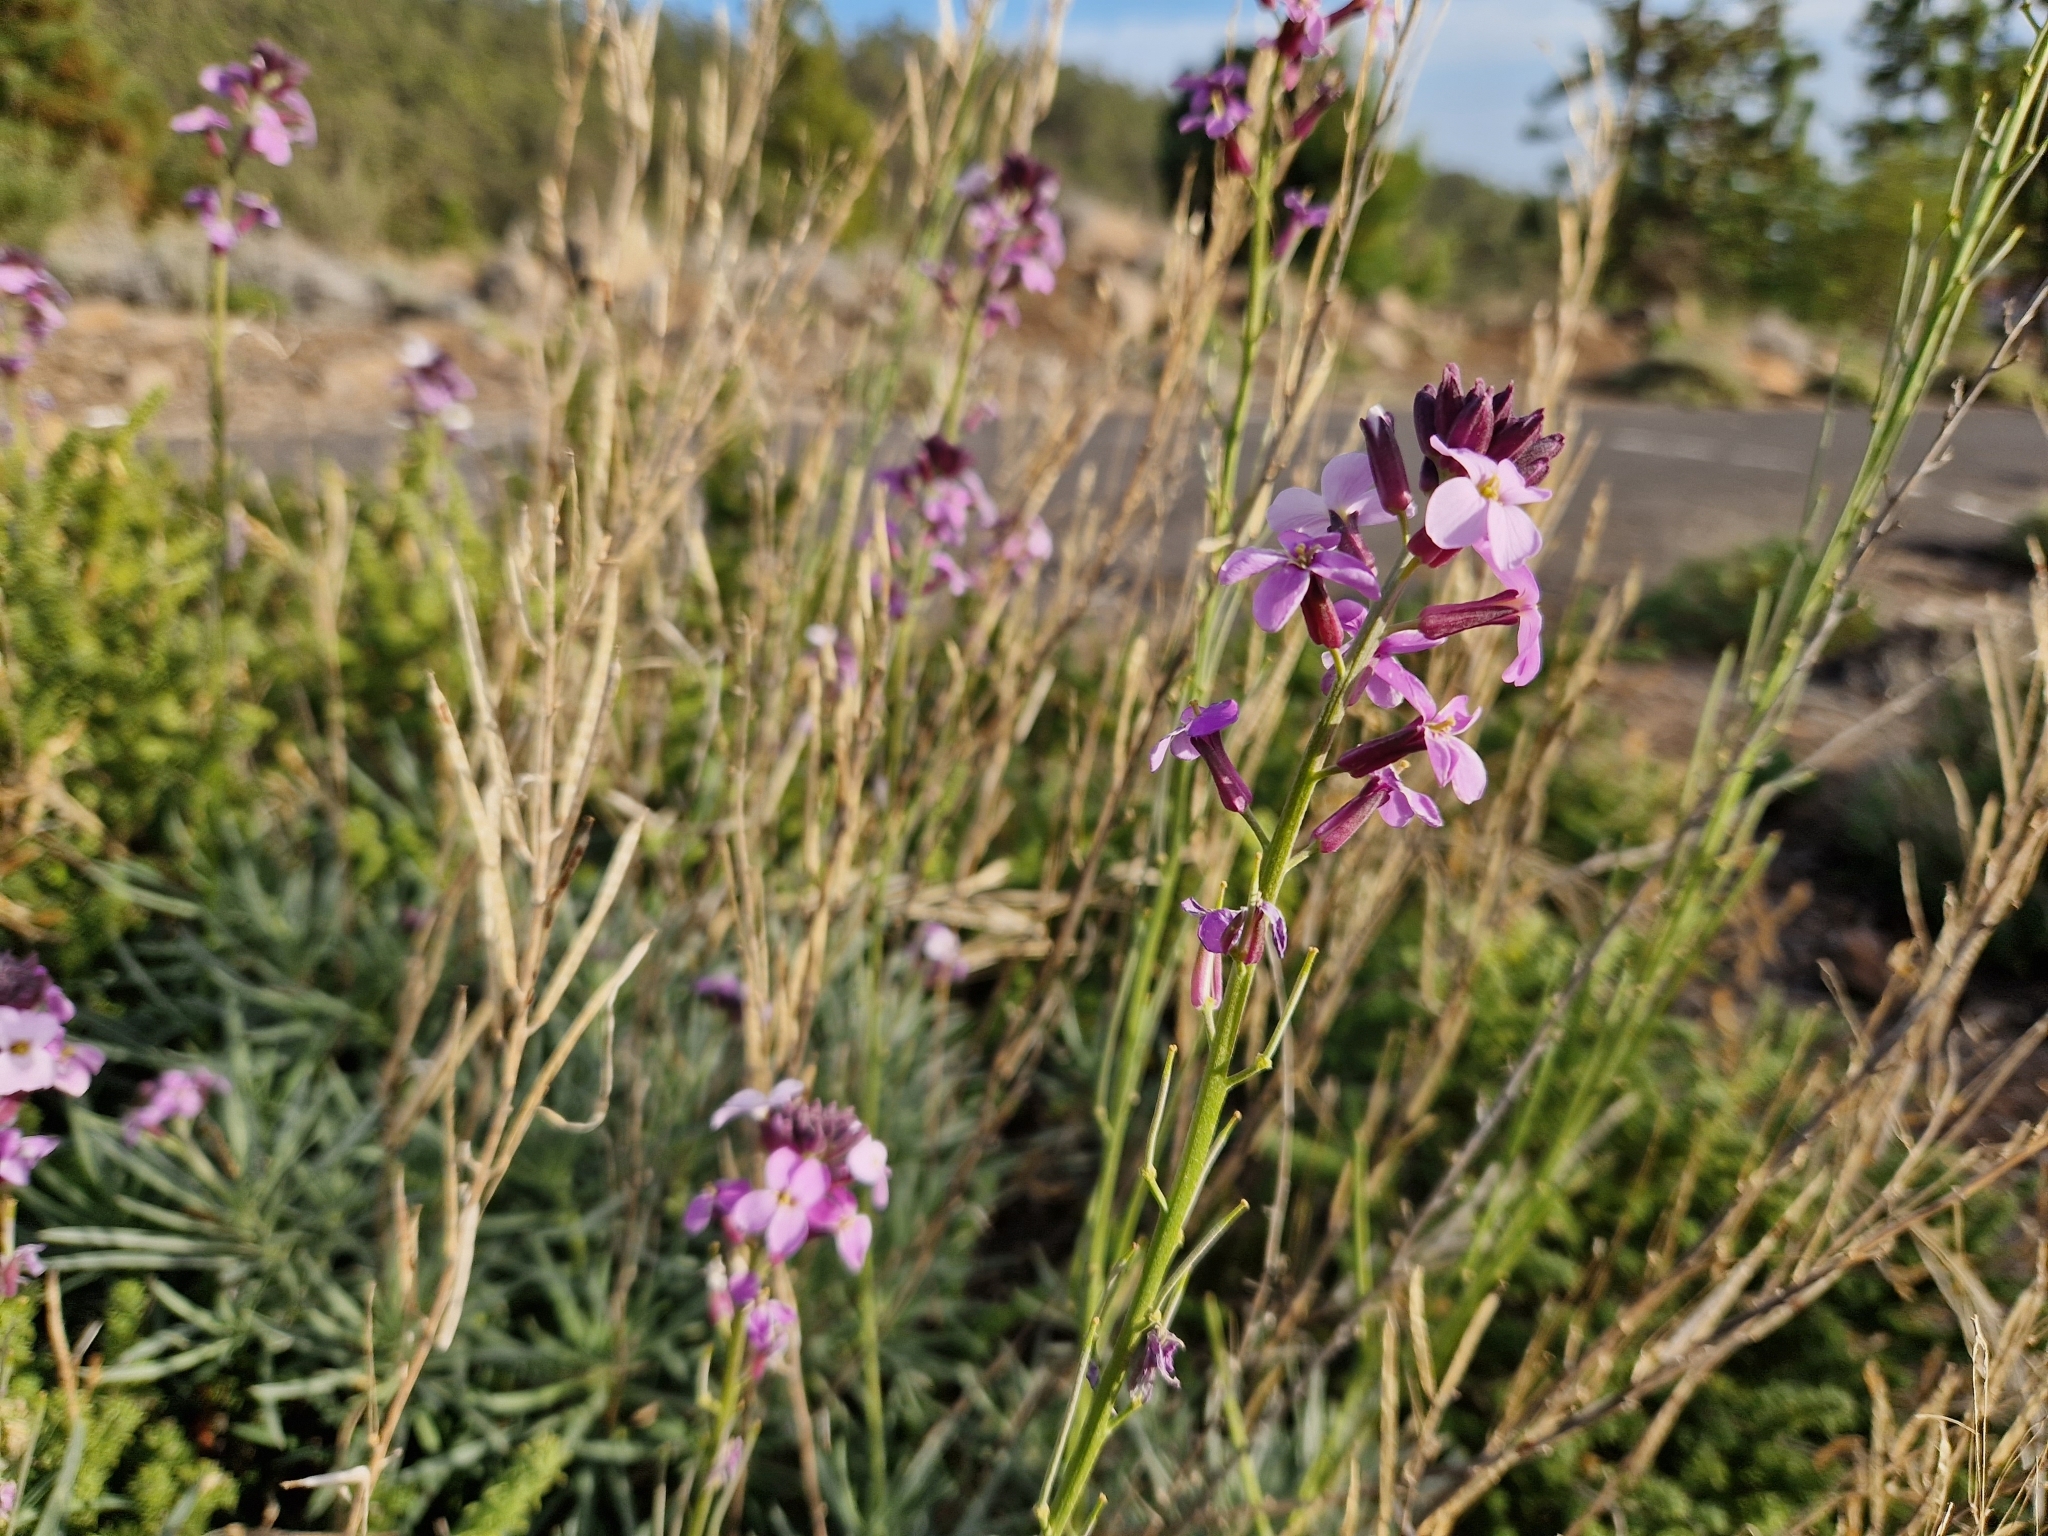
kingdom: Plantae
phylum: Tracheophyta
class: Magnoliopsida
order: Brassicales
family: Brassicaceae
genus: Erysimum
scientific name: Erysimum scoparium
